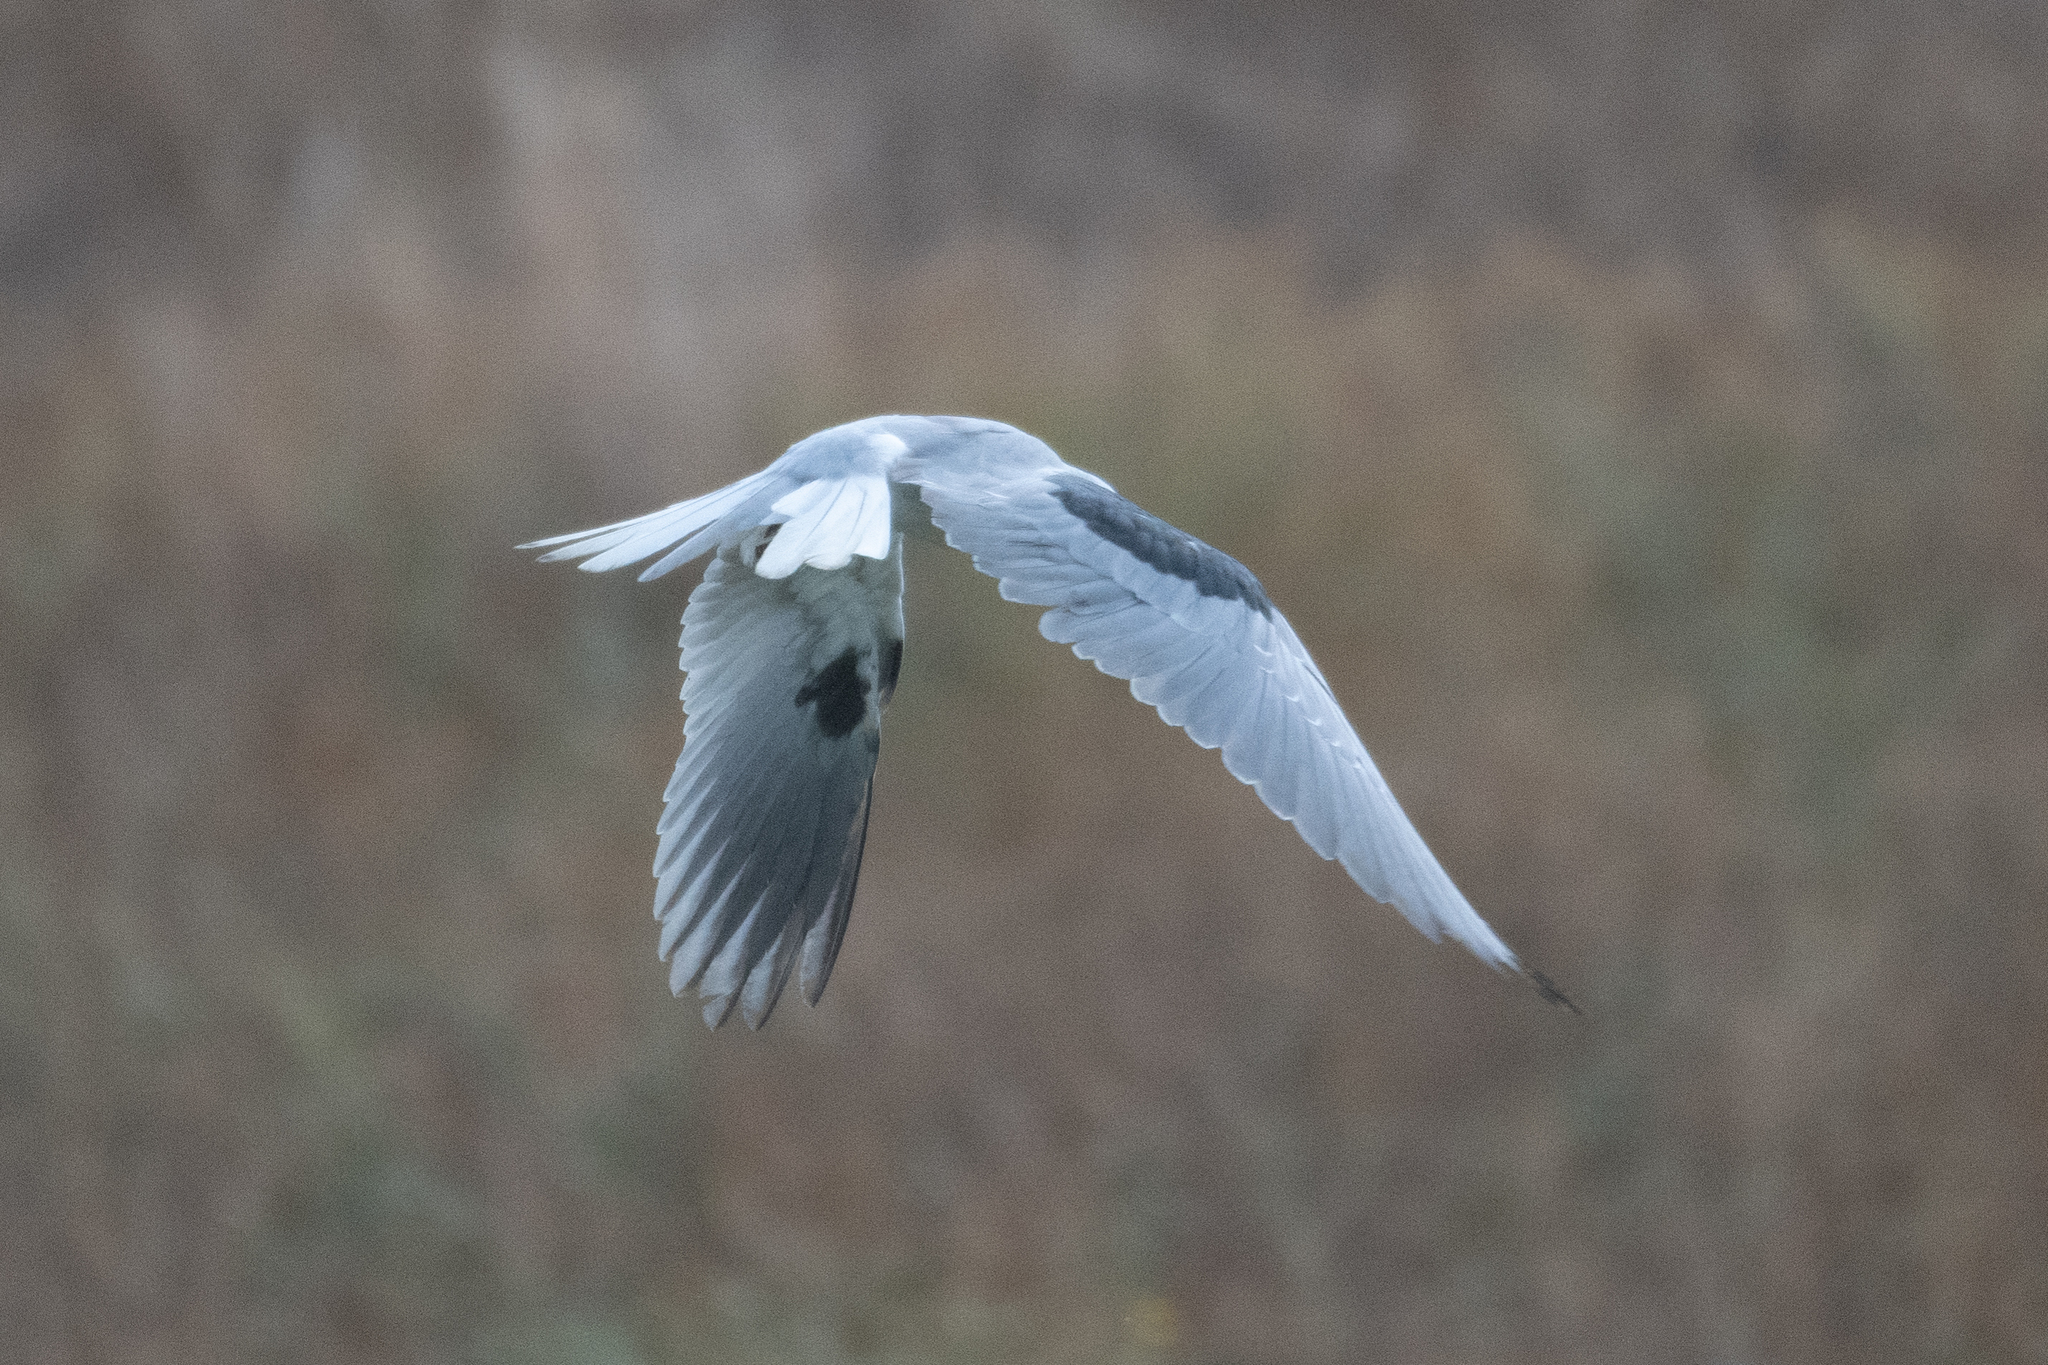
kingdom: Animalia
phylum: Chordata
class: Aves
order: Accipitriformes
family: Accipitridae
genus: Elanus
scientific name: Elanus leucurus
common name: White-tailed kite
